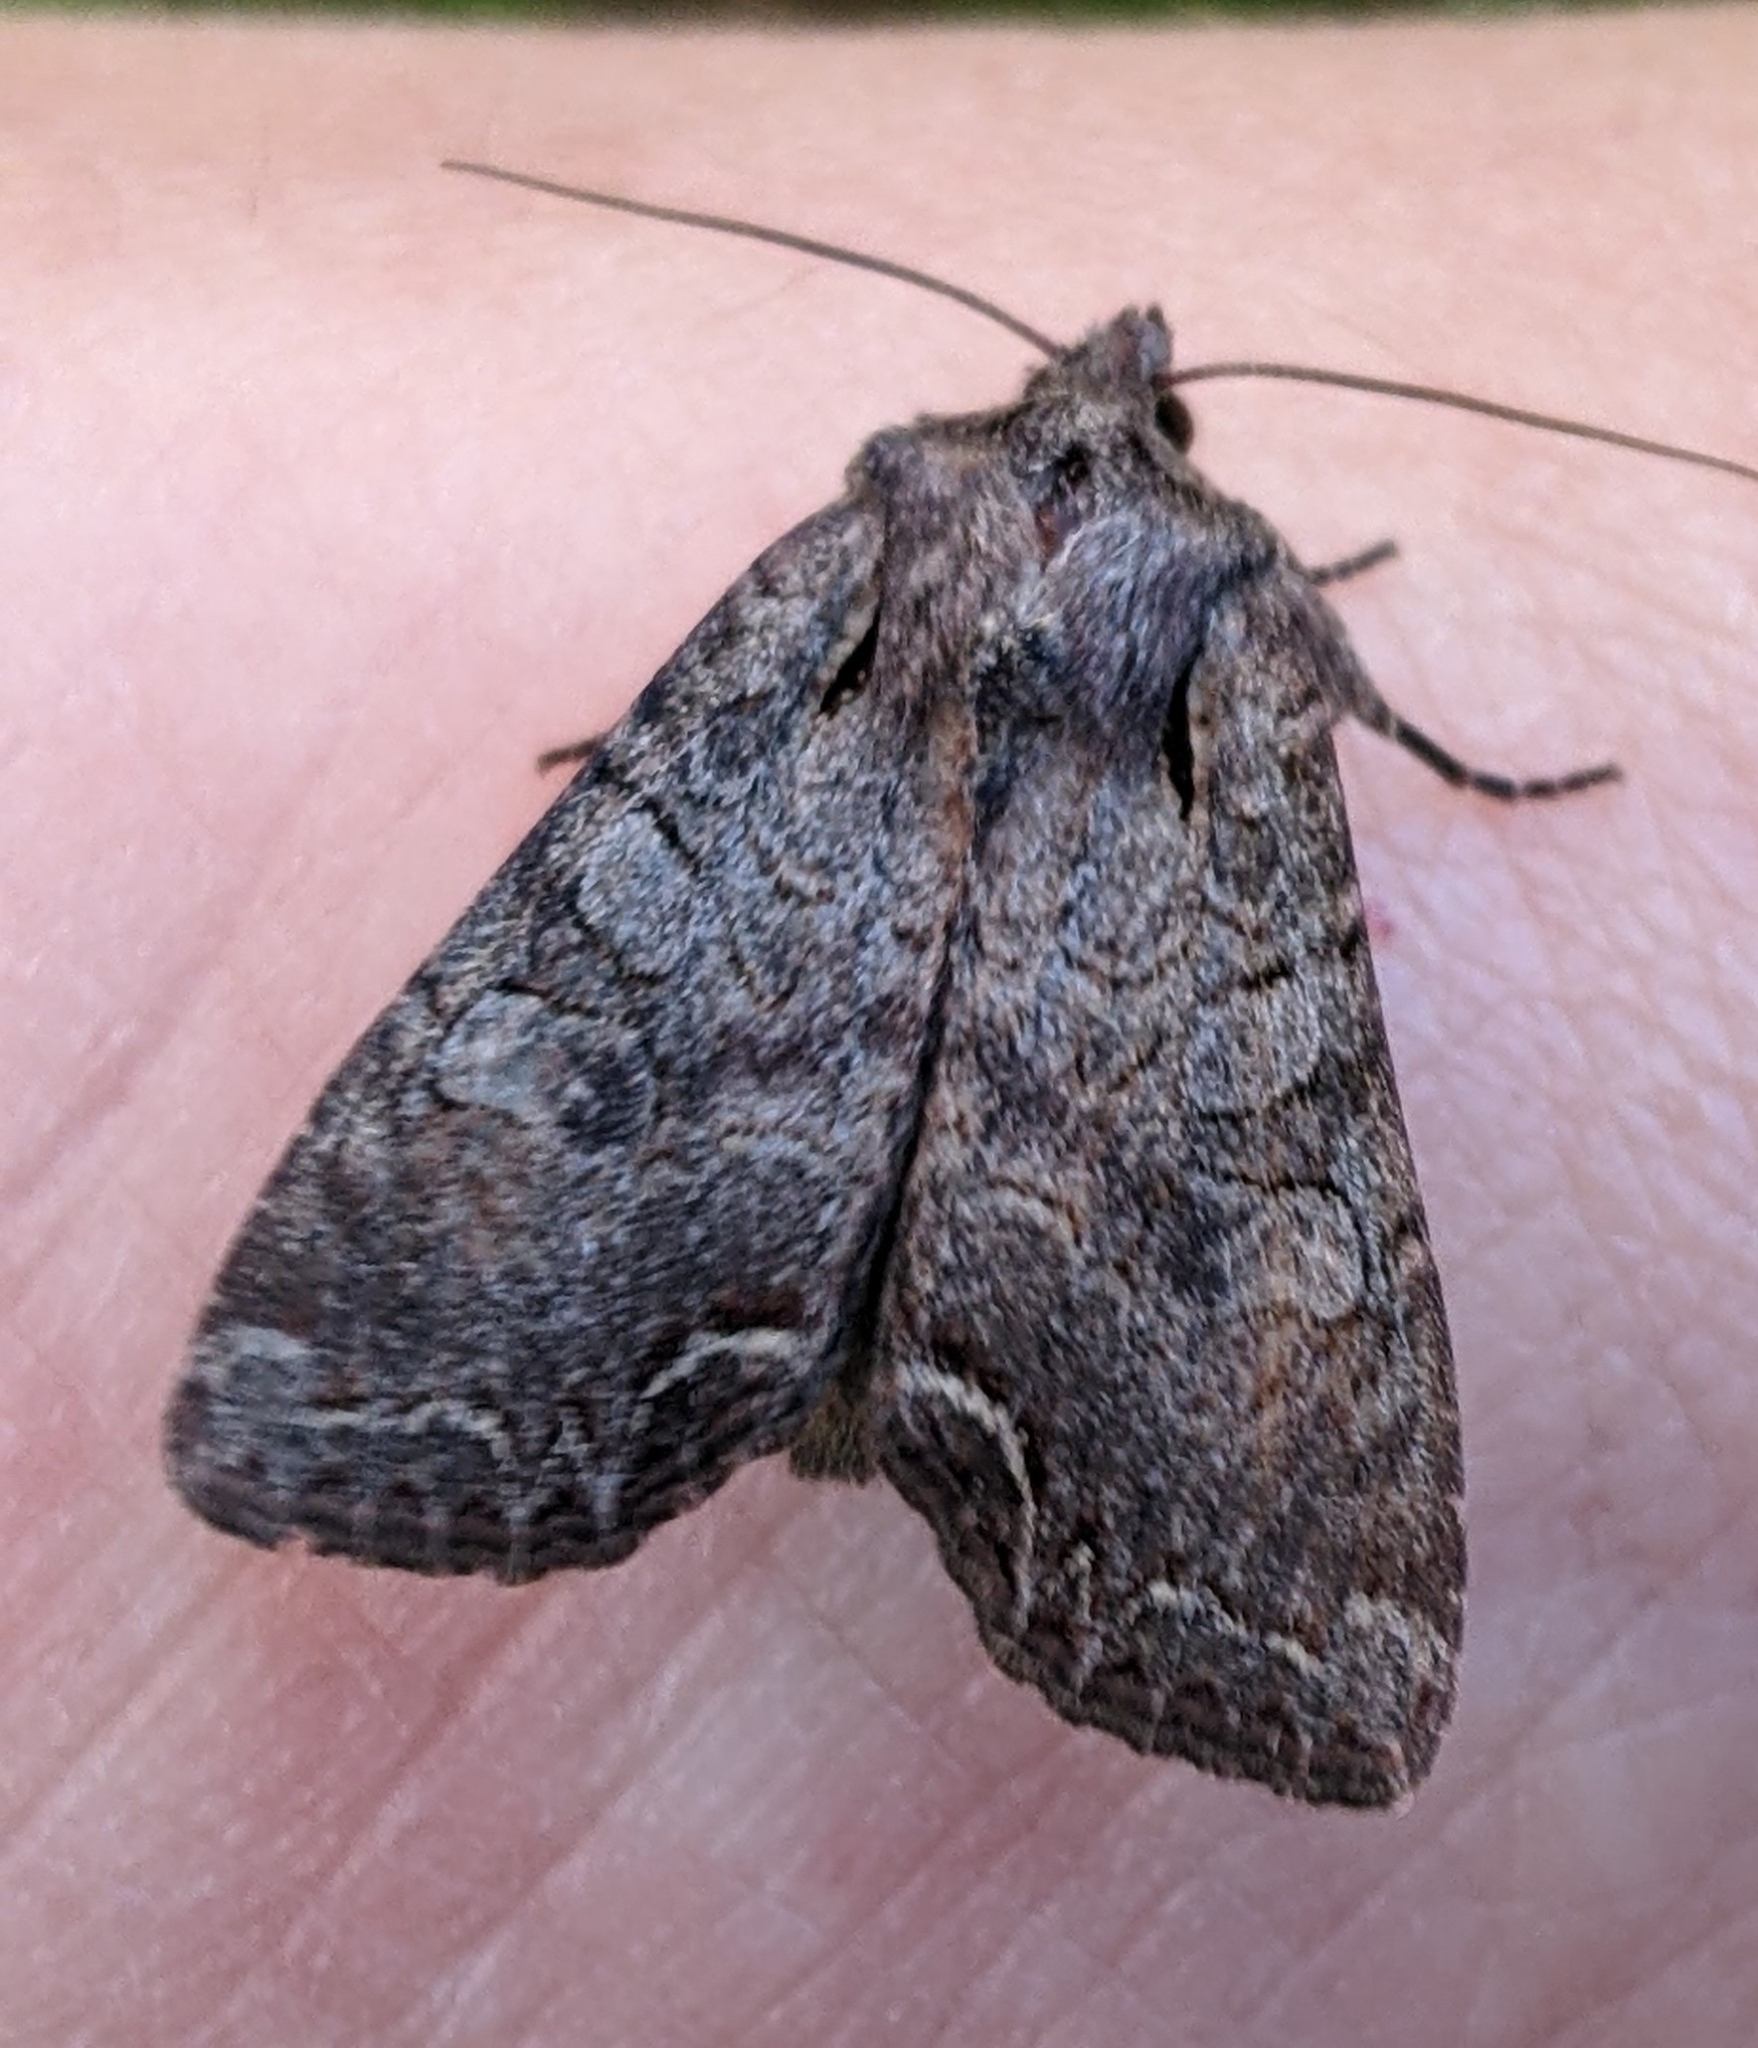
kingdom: Animalia
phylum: Arthropoda
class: Insecta
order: Lepidoptera
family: Noctuidae
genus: Lacanobia
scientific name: Lacanobia radix
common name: Garden arches moth
